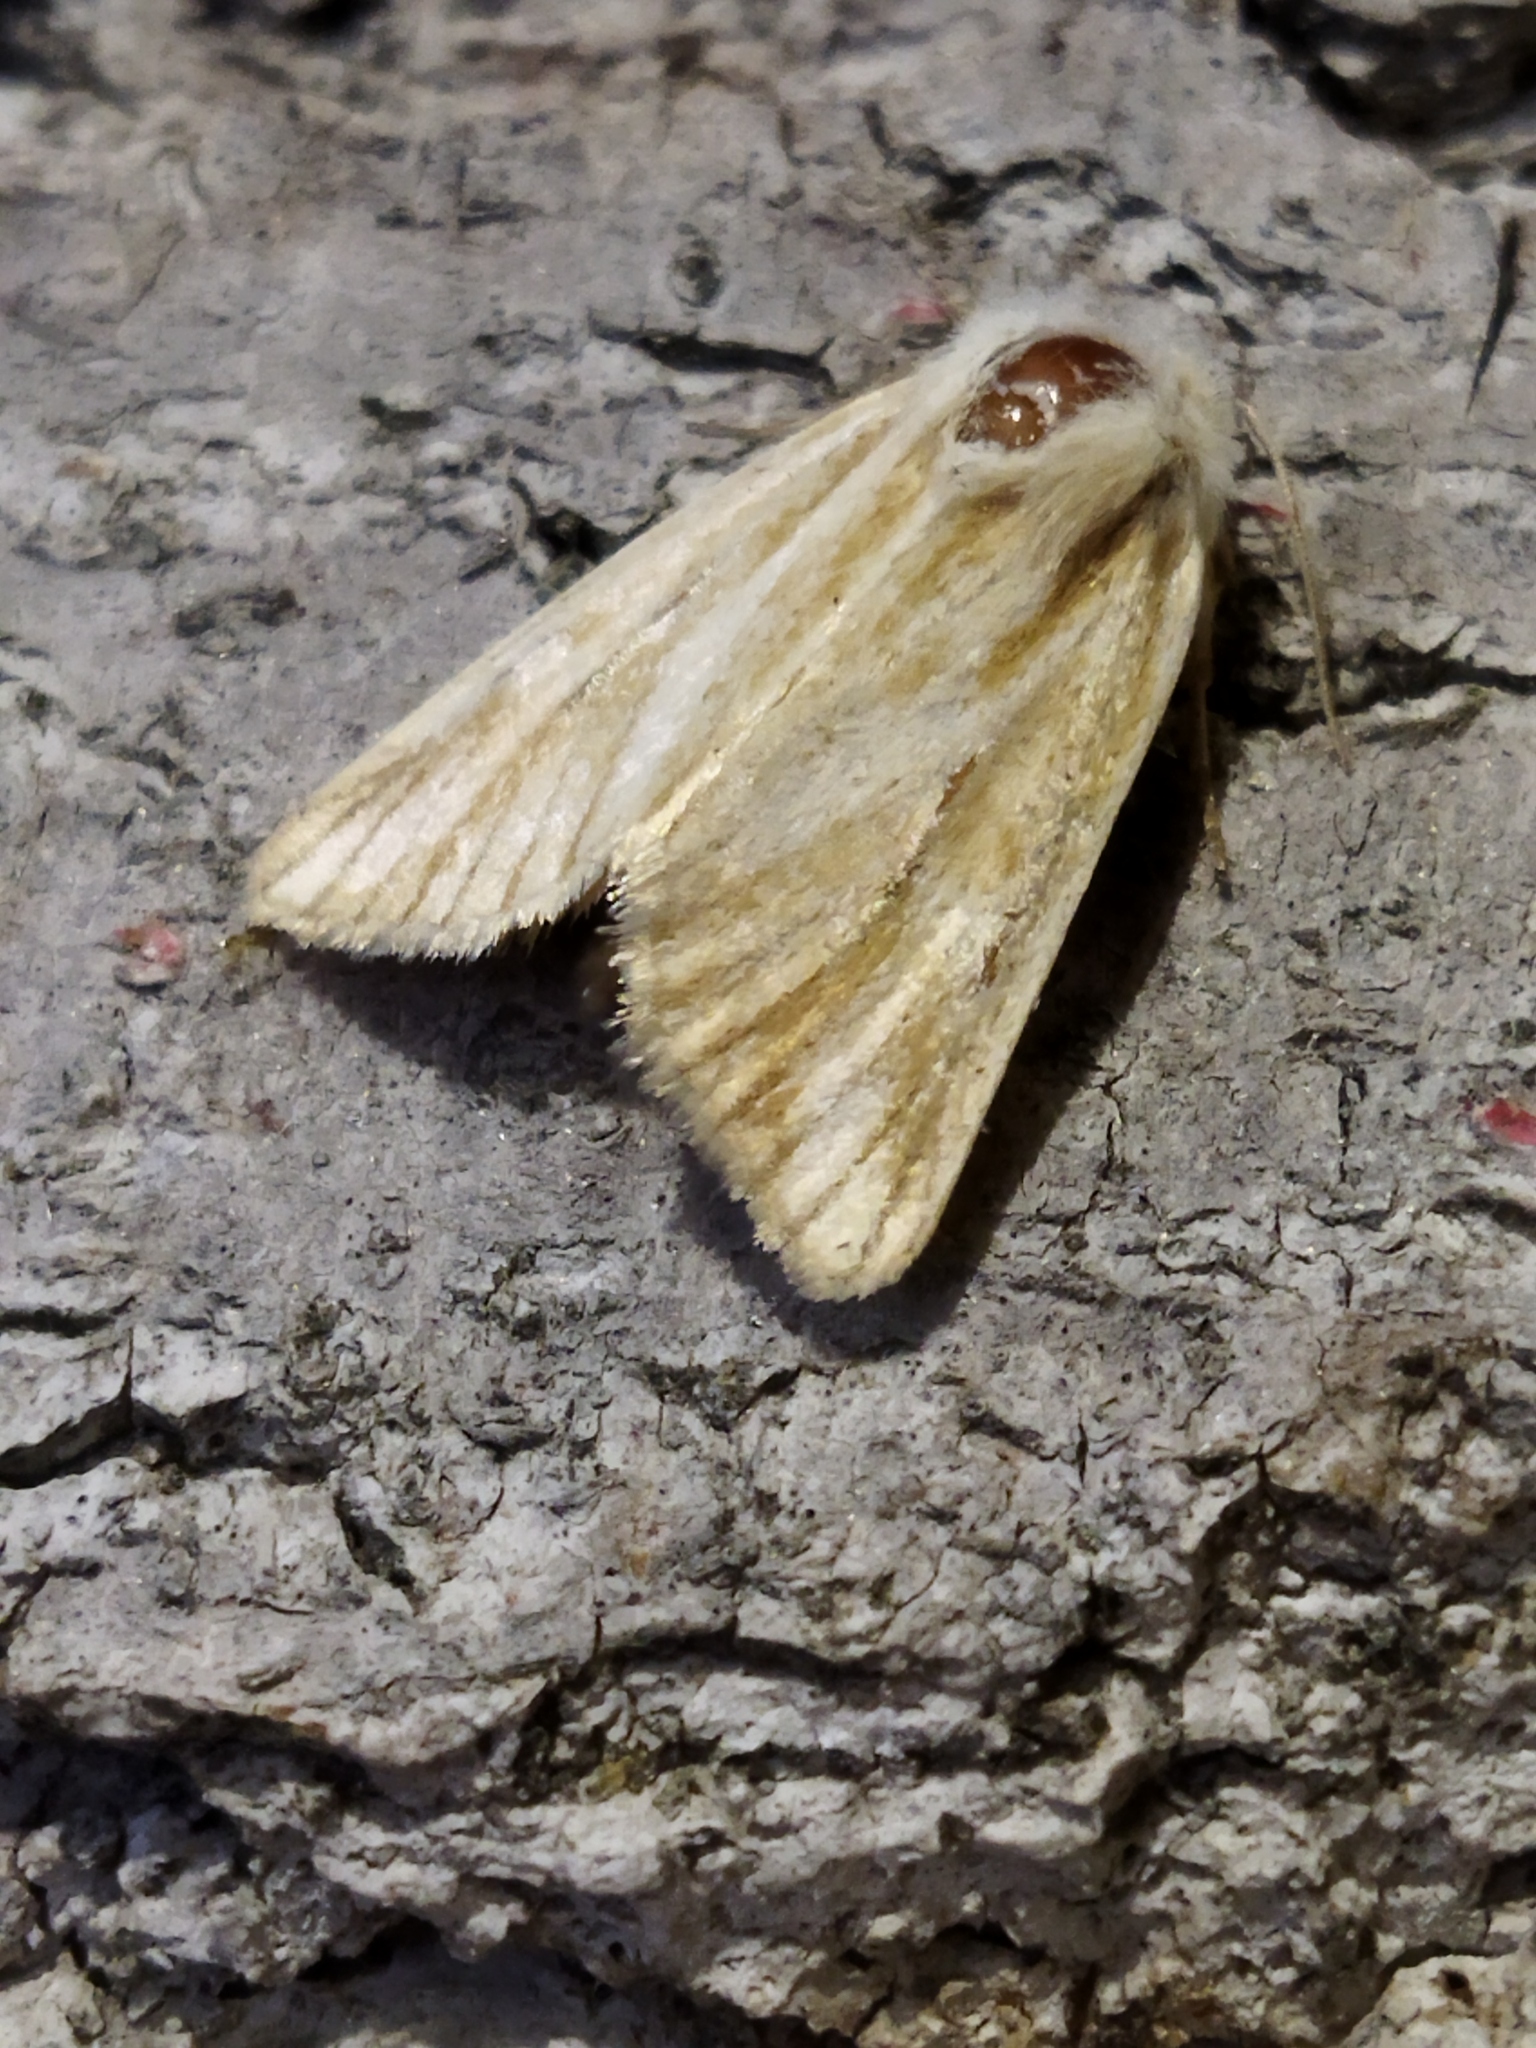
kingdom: Animalia
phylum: Arthropoda
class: Insecta
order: Lepidoptera
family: Noctuidae
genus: Oria
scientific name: Oria musculosa
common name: Brighton wainscot
